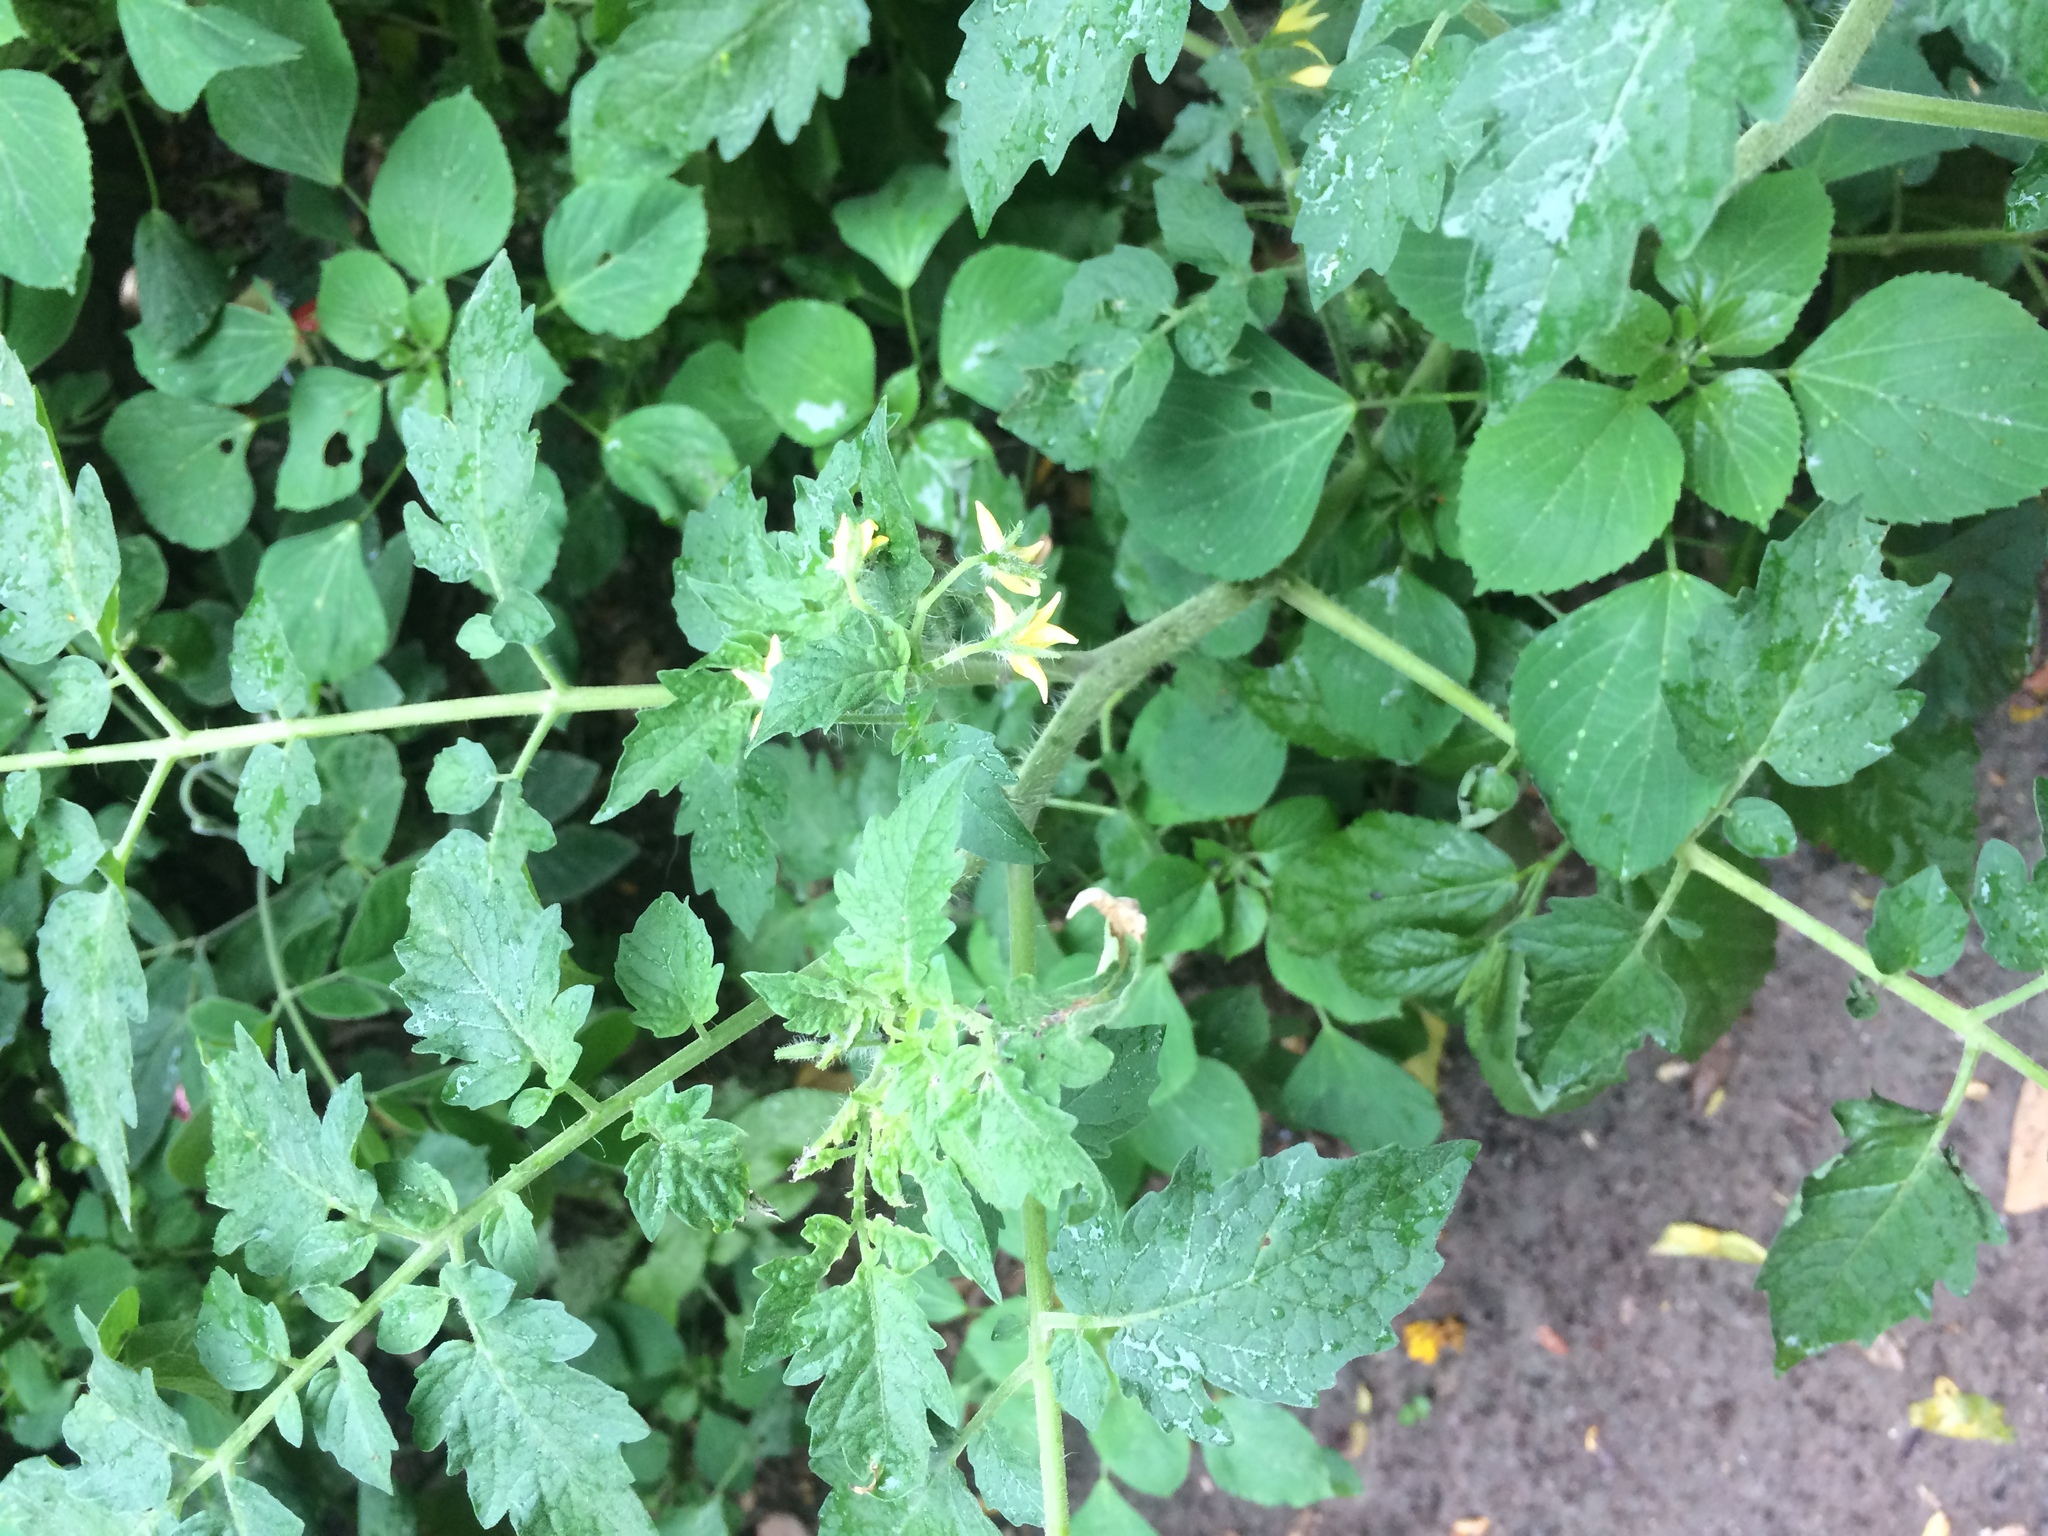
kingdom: Plantae
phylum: Tracheophyta
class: Magnoliopsida
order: Solanales
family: Solanaceae
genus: Solanum
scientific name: Solanum lycopersicum
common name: Garden tomato
